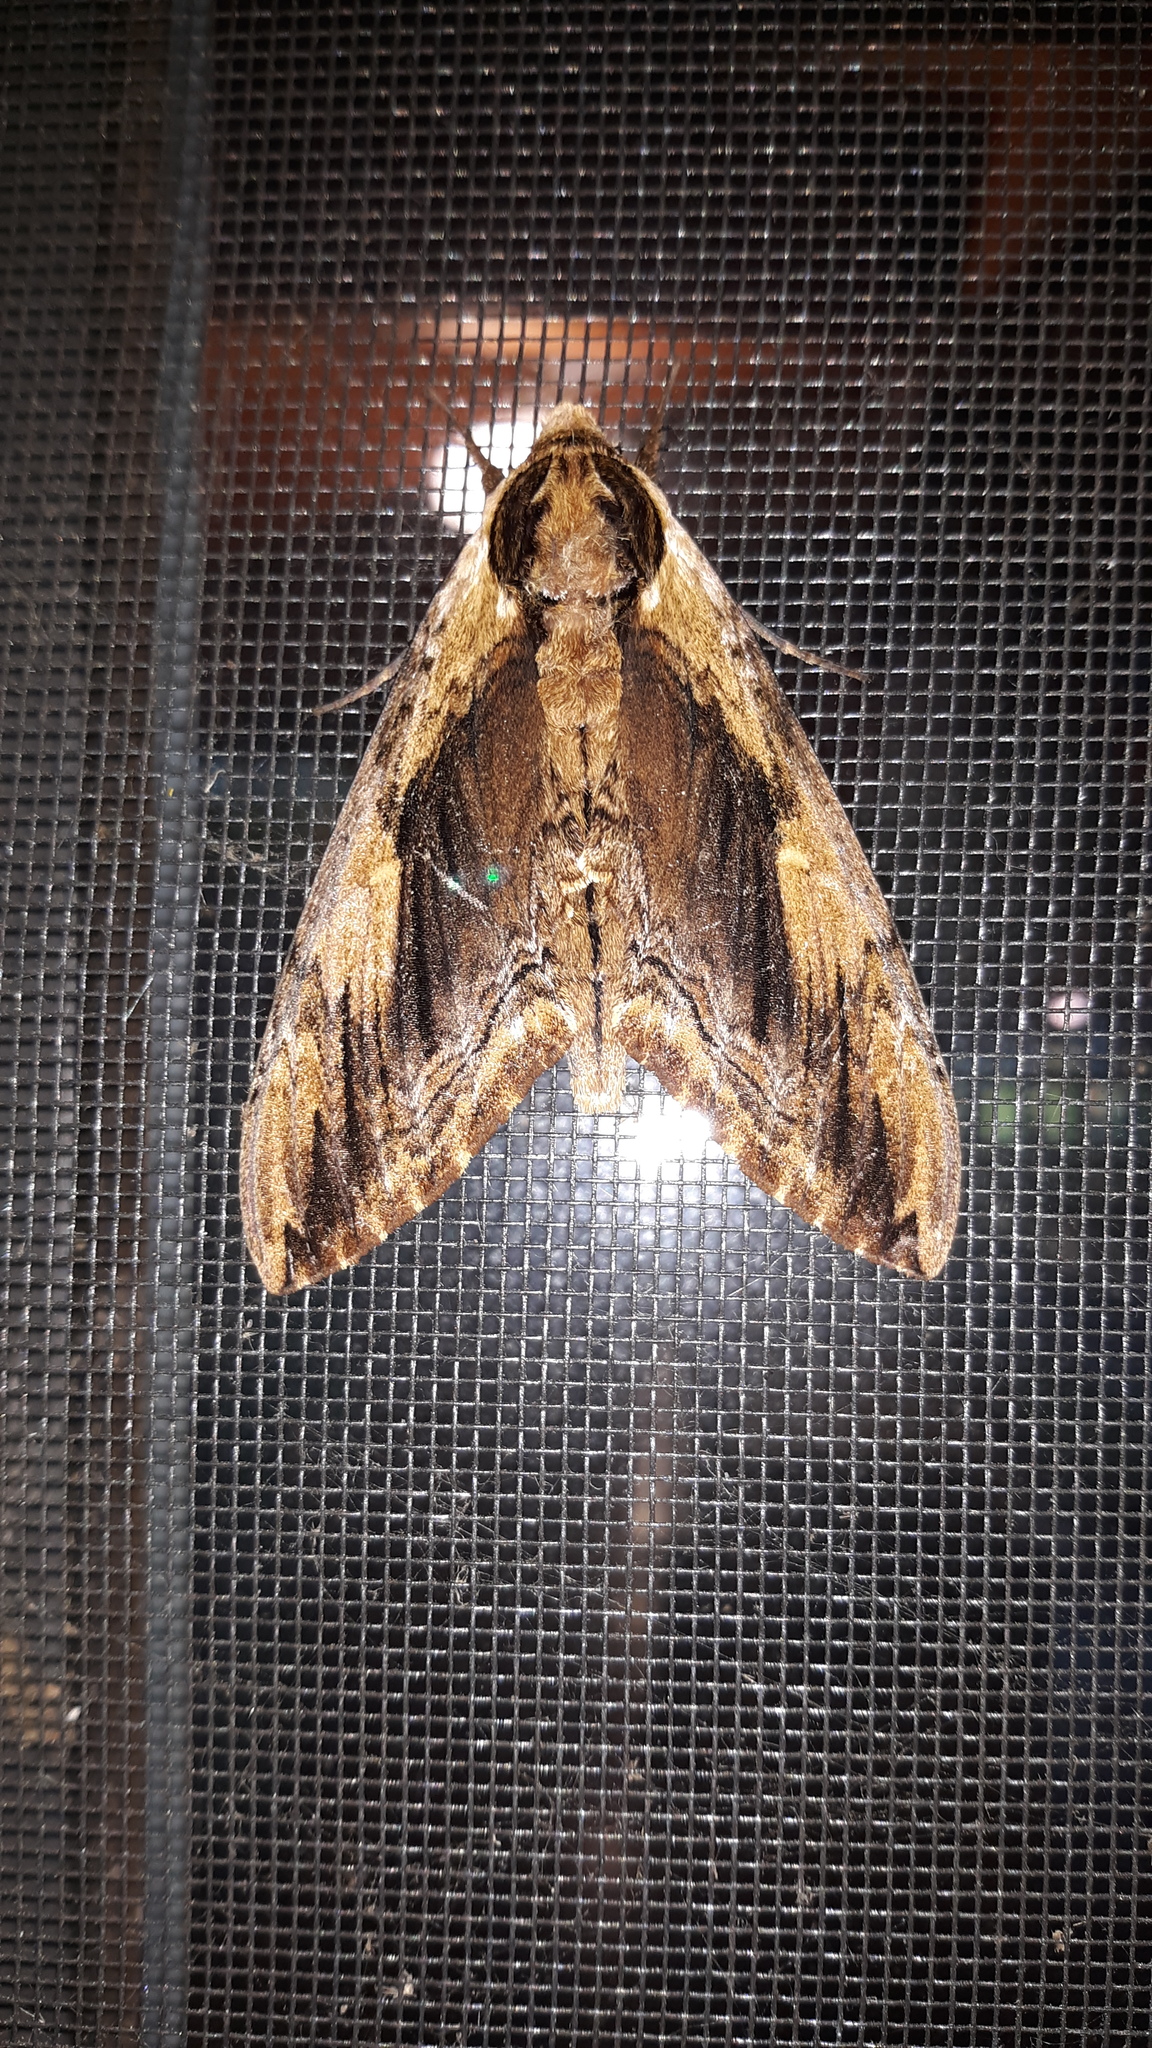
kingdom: Animalia
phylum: Arthropoda
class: Insecta
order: Lepidoptera
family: Sphingidae
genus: Ceratomia
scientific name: Ceratomia amyntor
